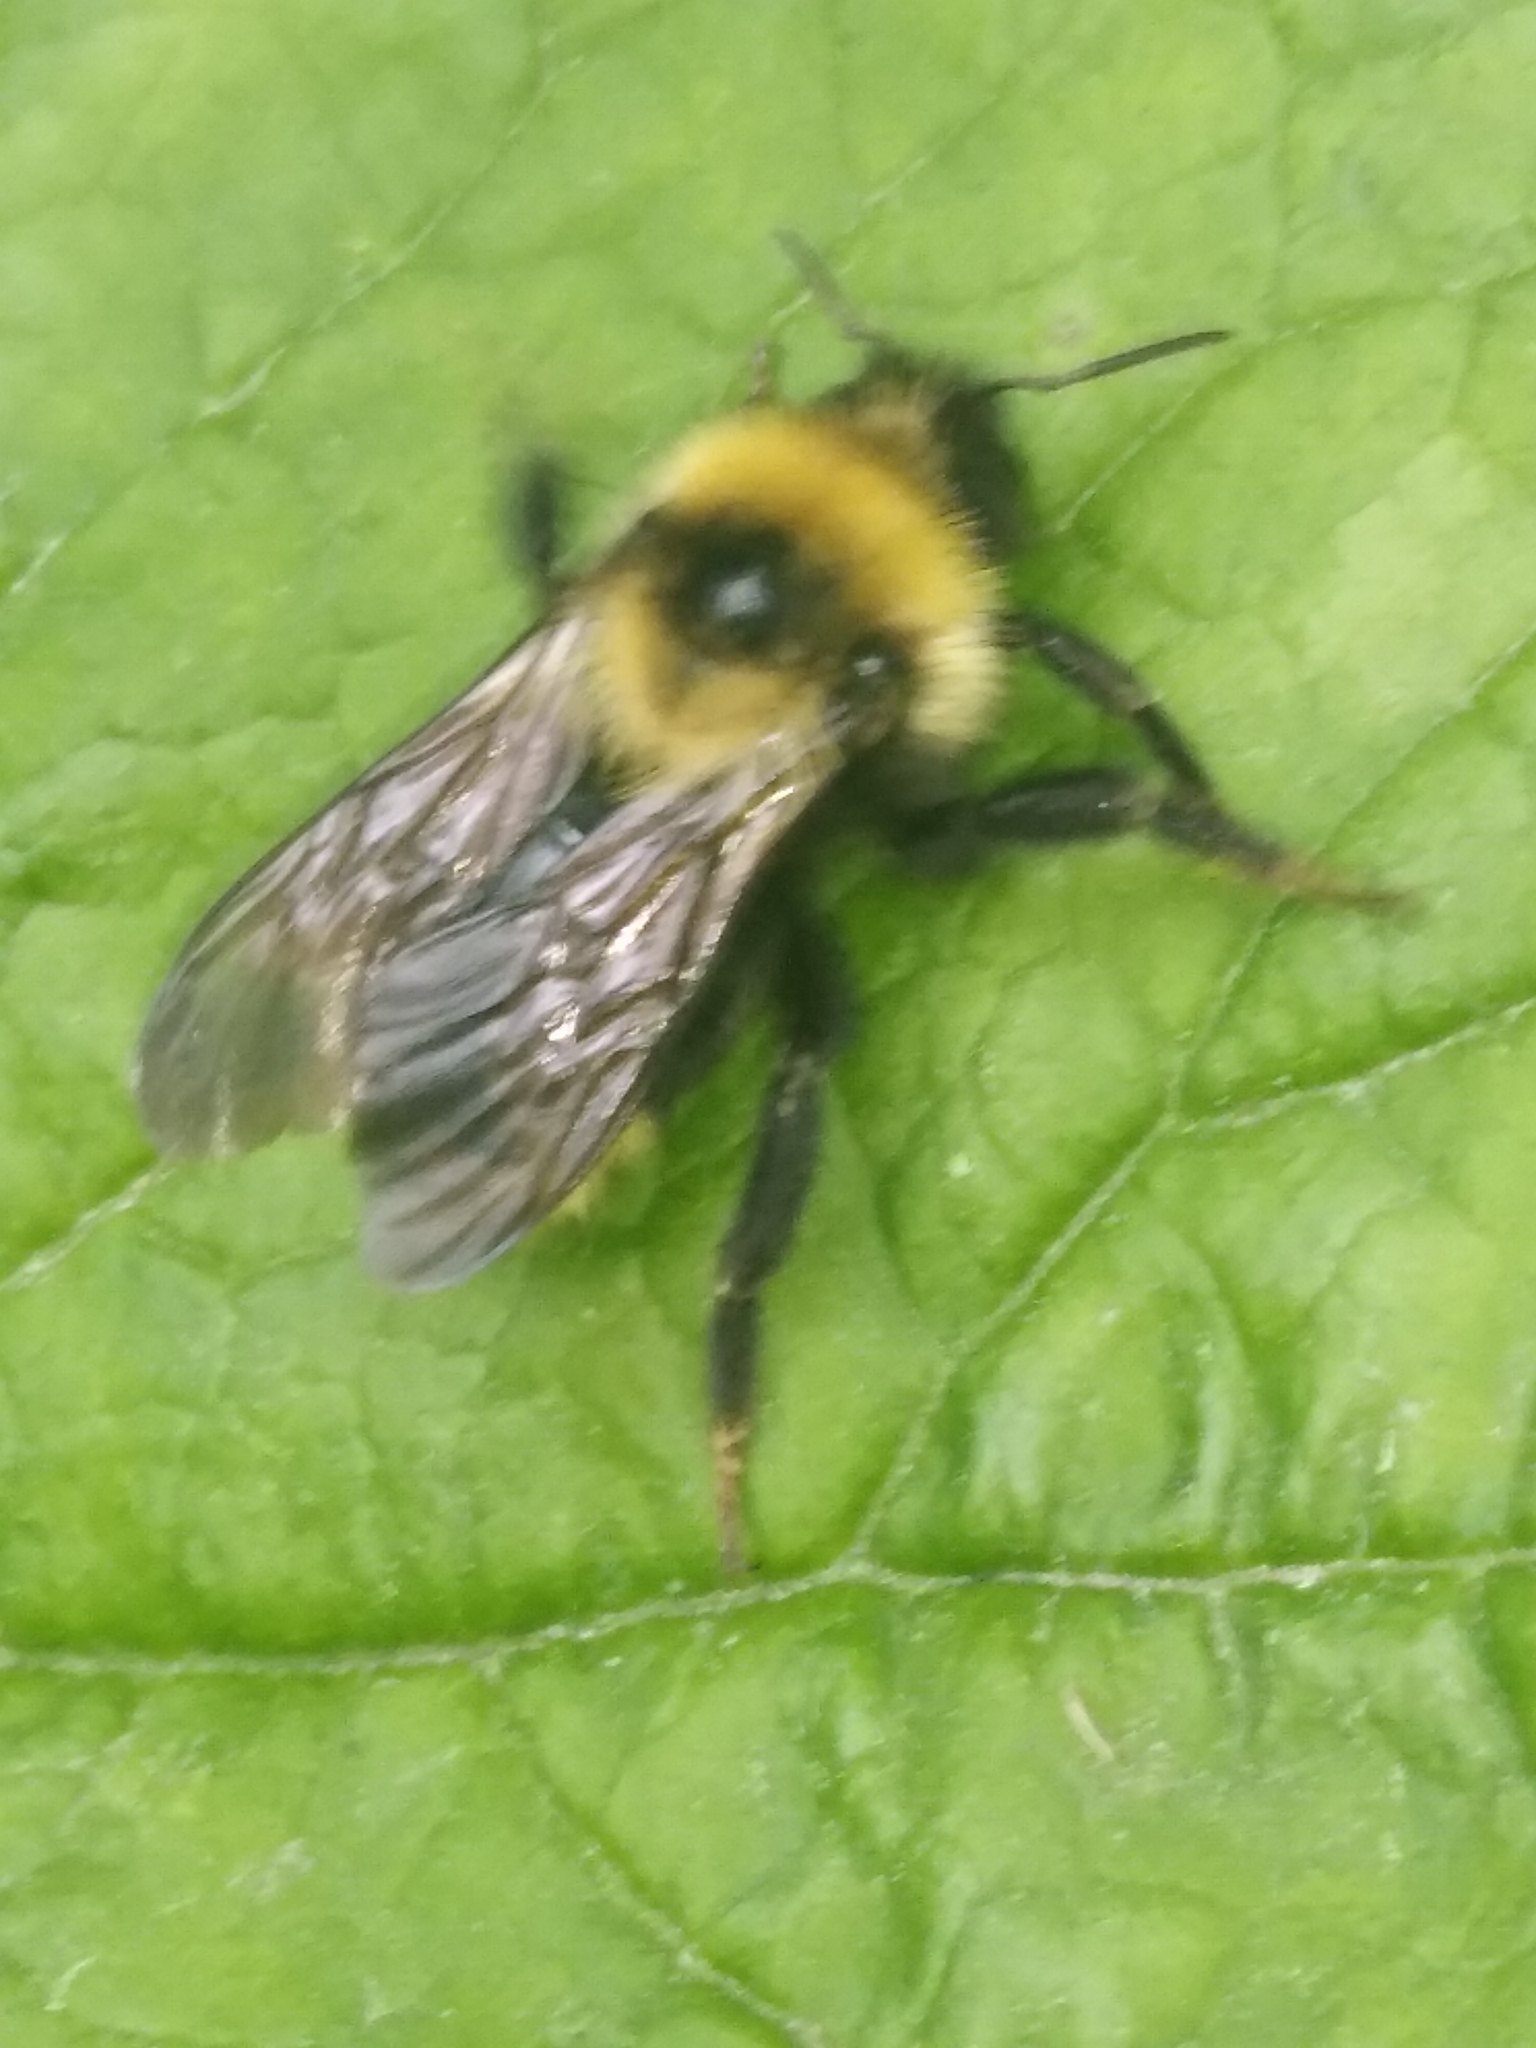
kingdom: Animalia
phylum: Arthropoda
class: Insecta
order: Hymenoptera
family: Apidae
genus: Bombus
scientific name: Bombus campestris
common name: Field cuckoo-bee
